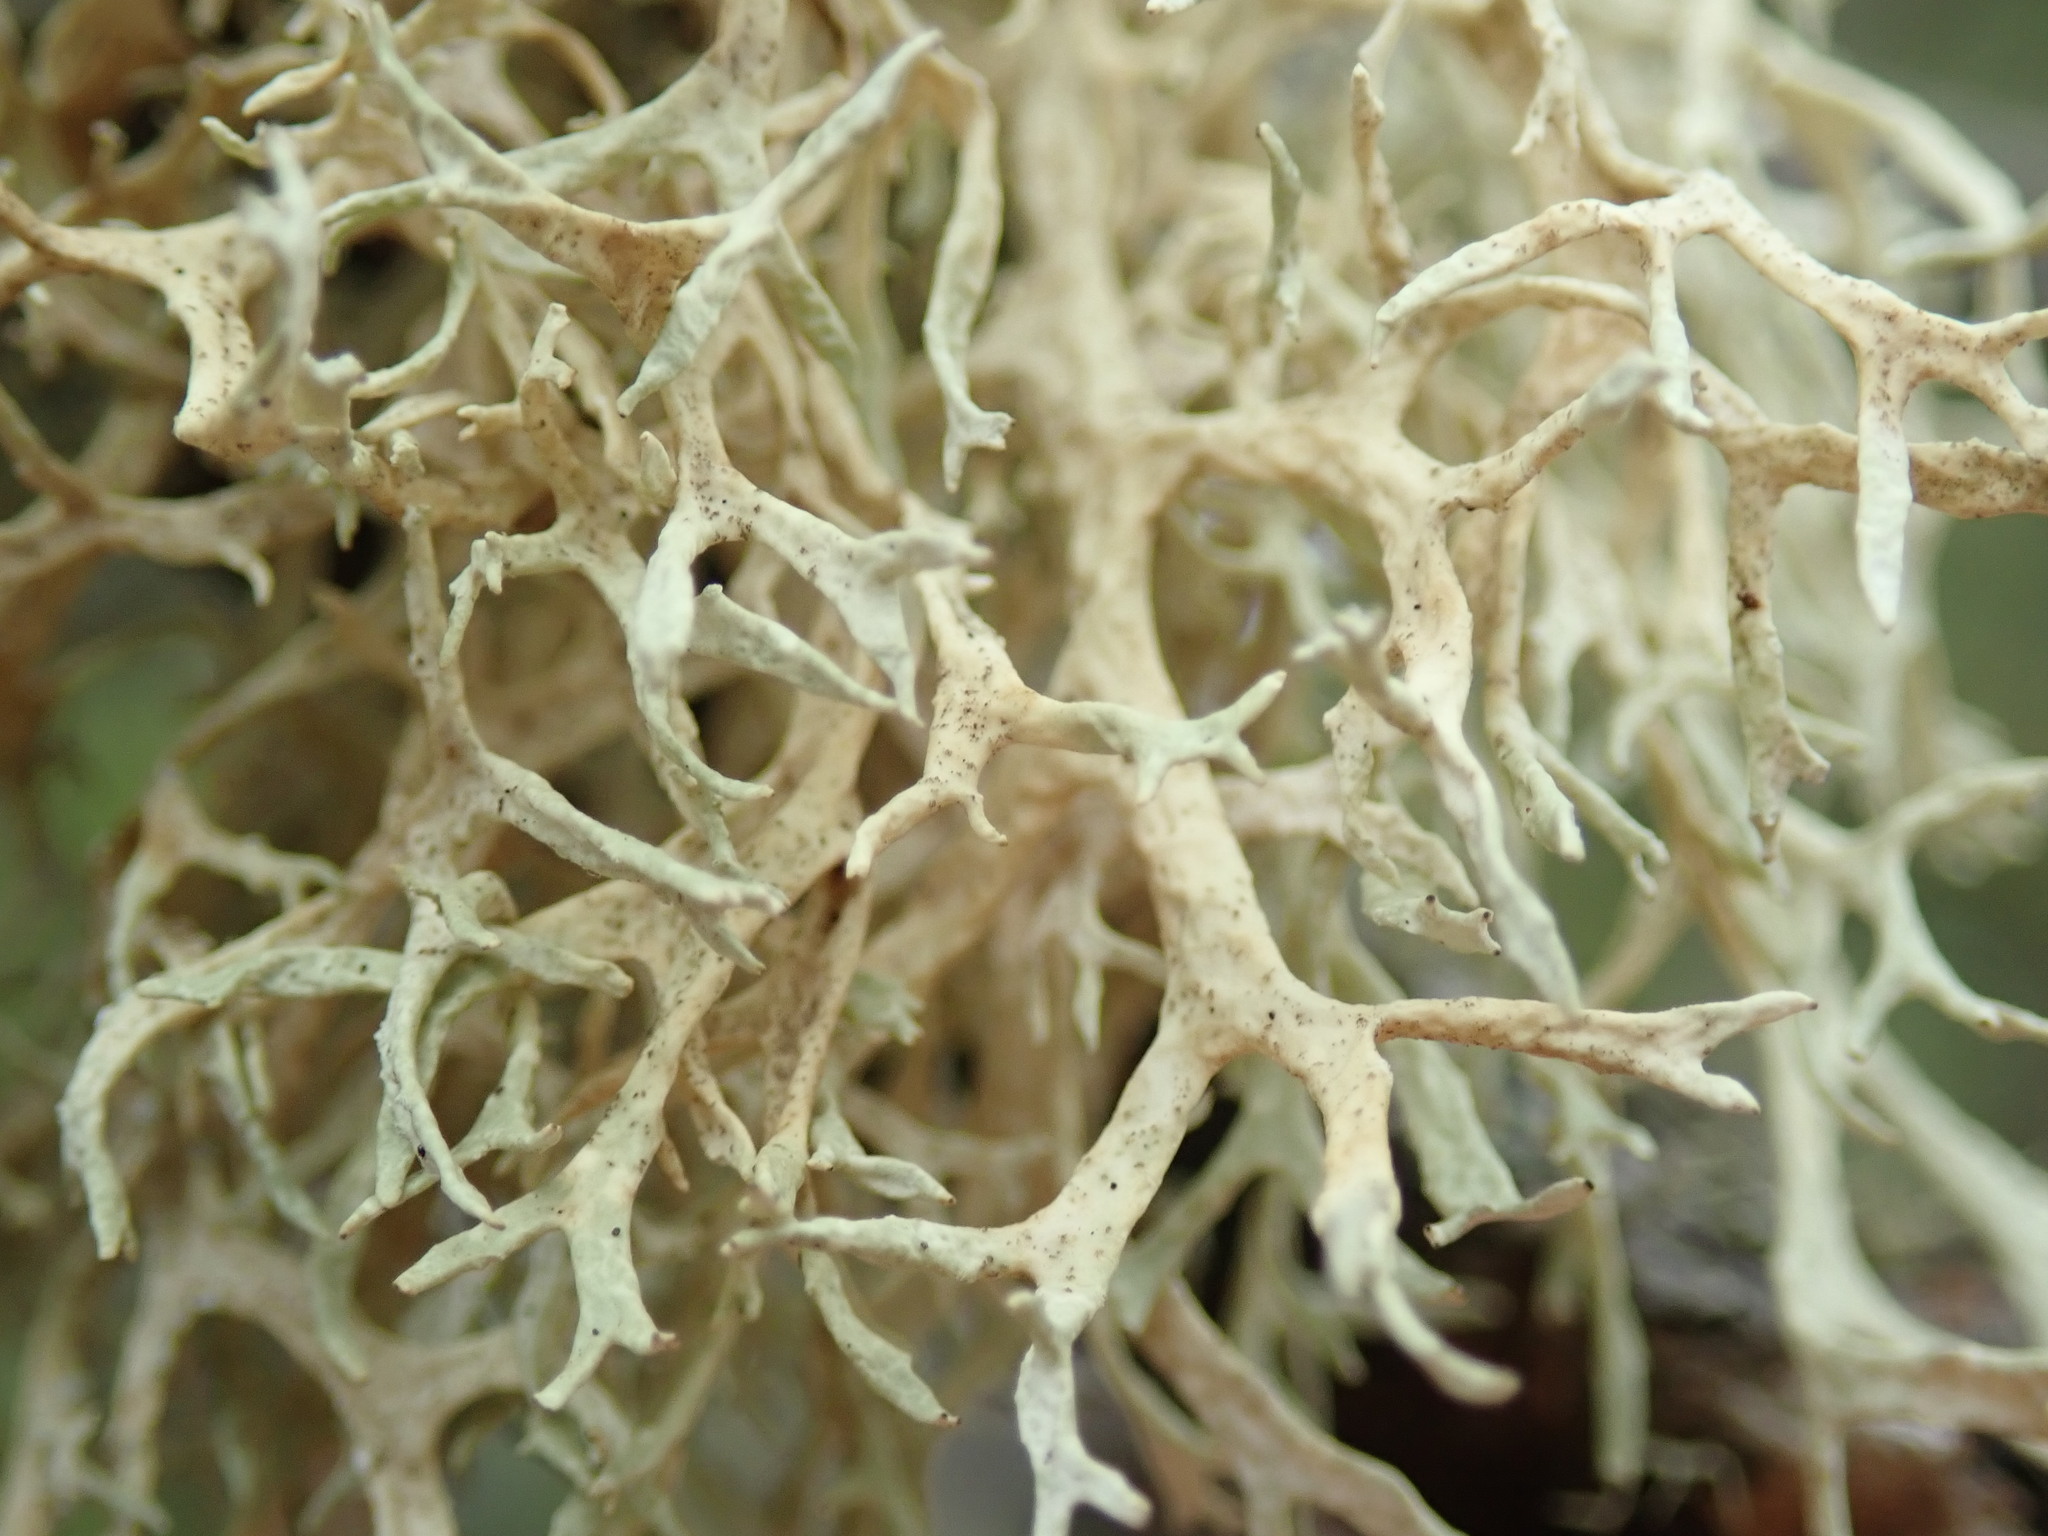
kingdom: Fungi
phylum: Ascomycota
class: Lecanoromycetes
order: Lecanorales
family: Parmeliaceae
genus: Evernia
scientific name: Evernia prunastri
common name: Oak moss
